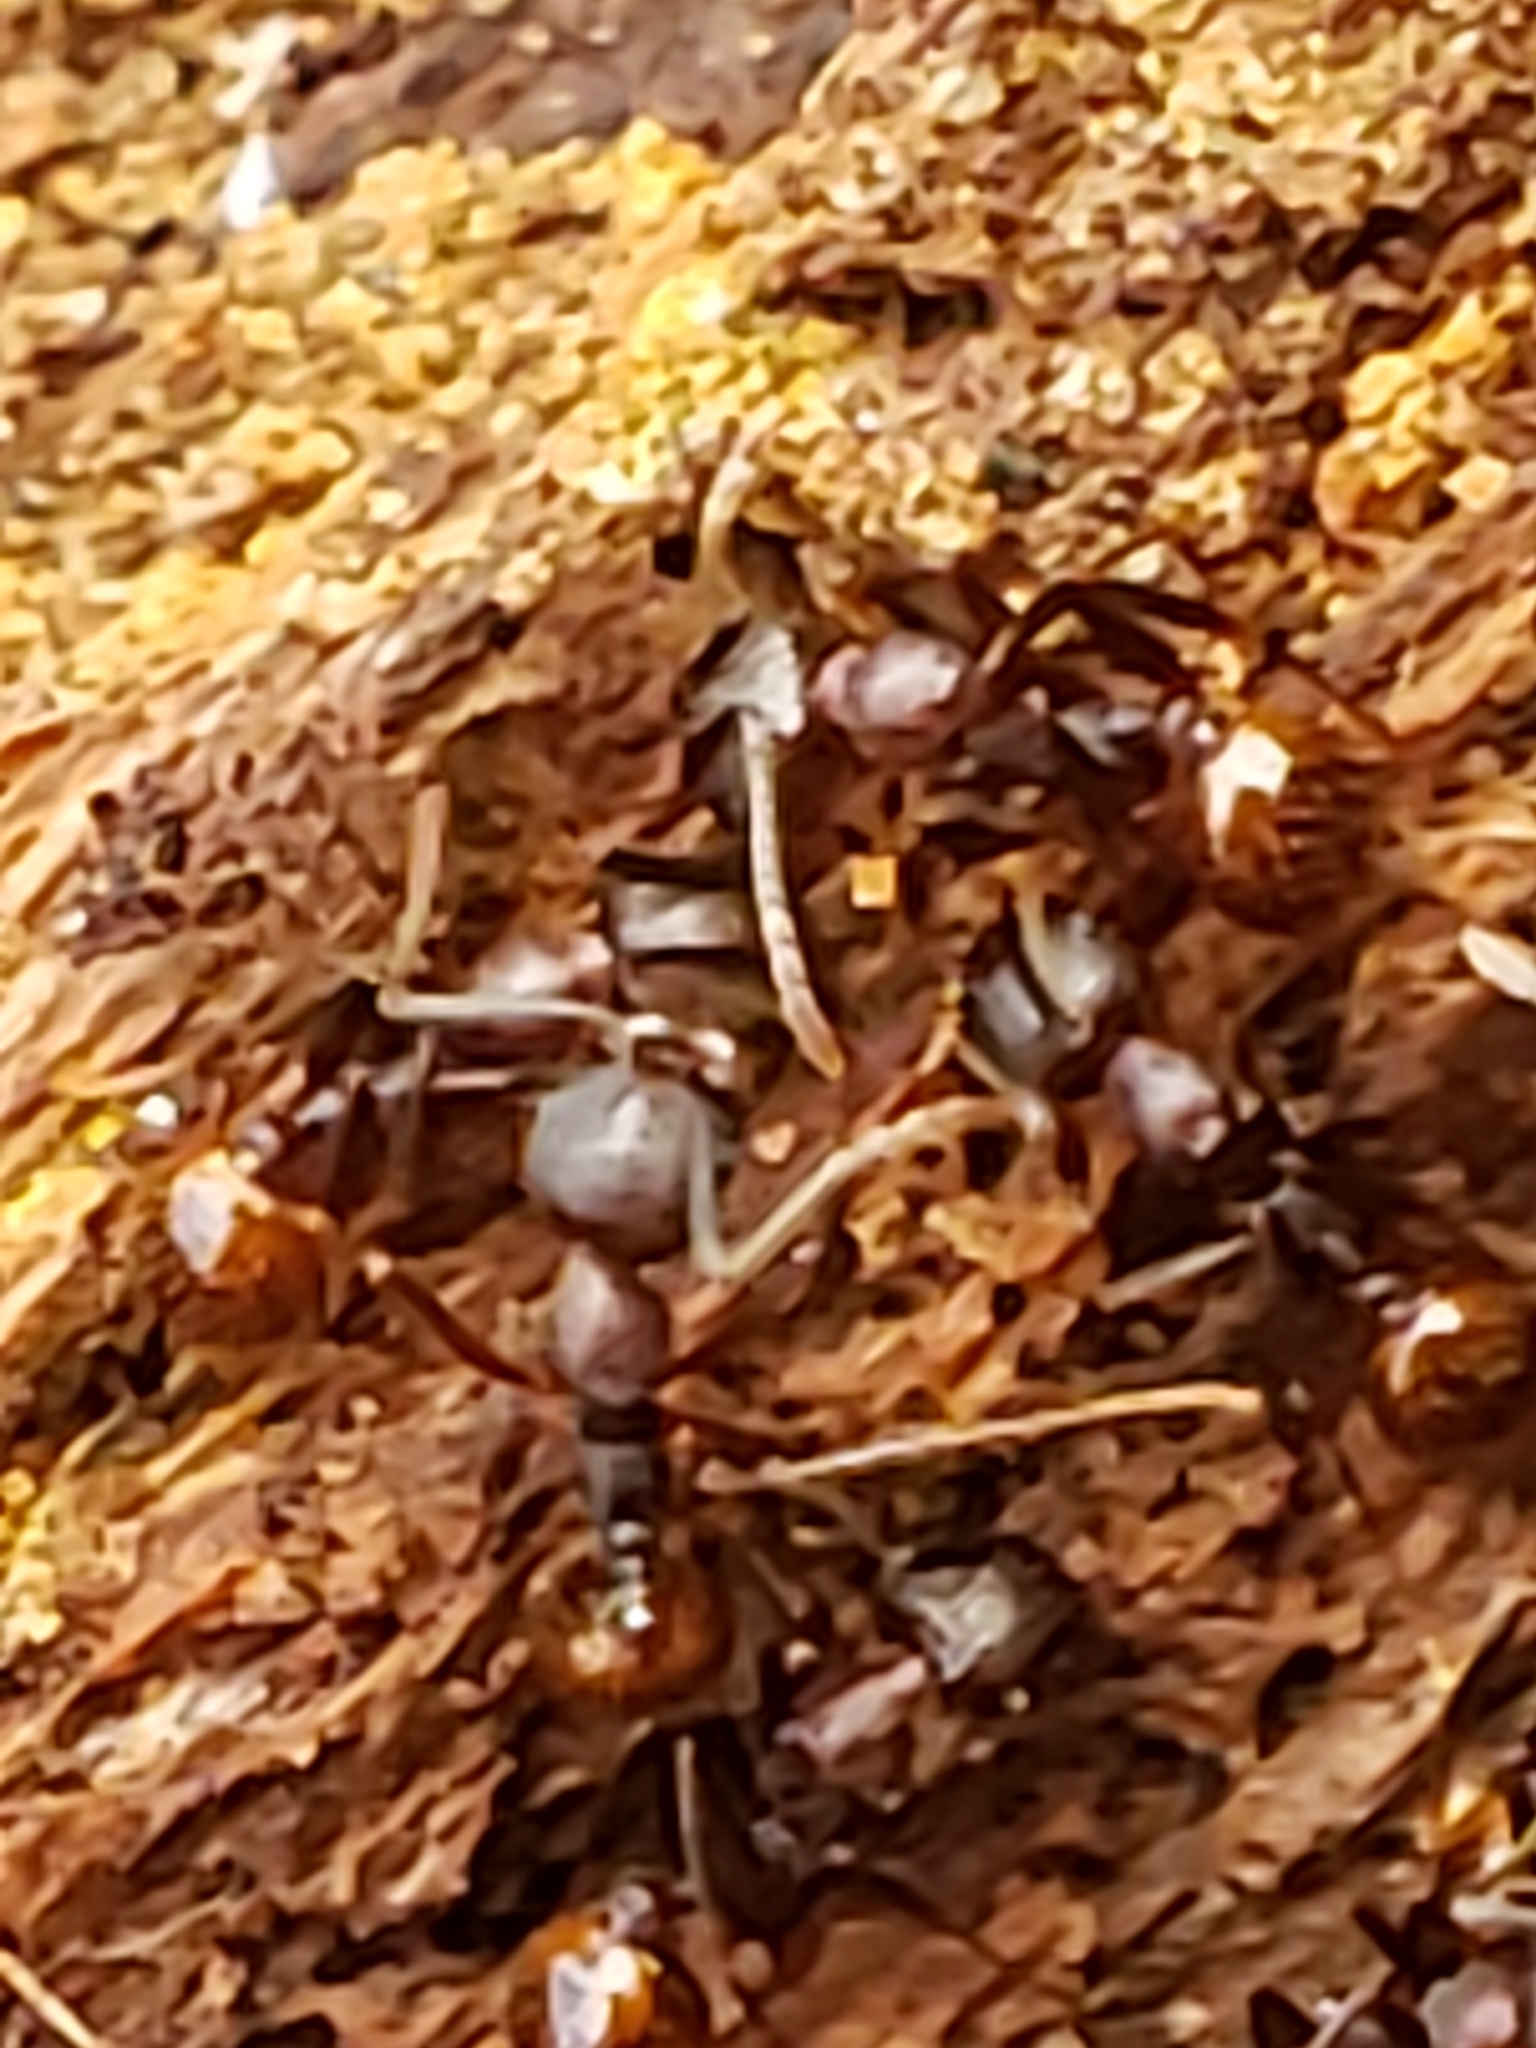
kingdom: Animalia
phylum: Arthropoda
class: Insecta
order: Hymenoptera
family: Formicidae
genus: Aphaenogaster
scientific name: Aphaenogaster fulva
